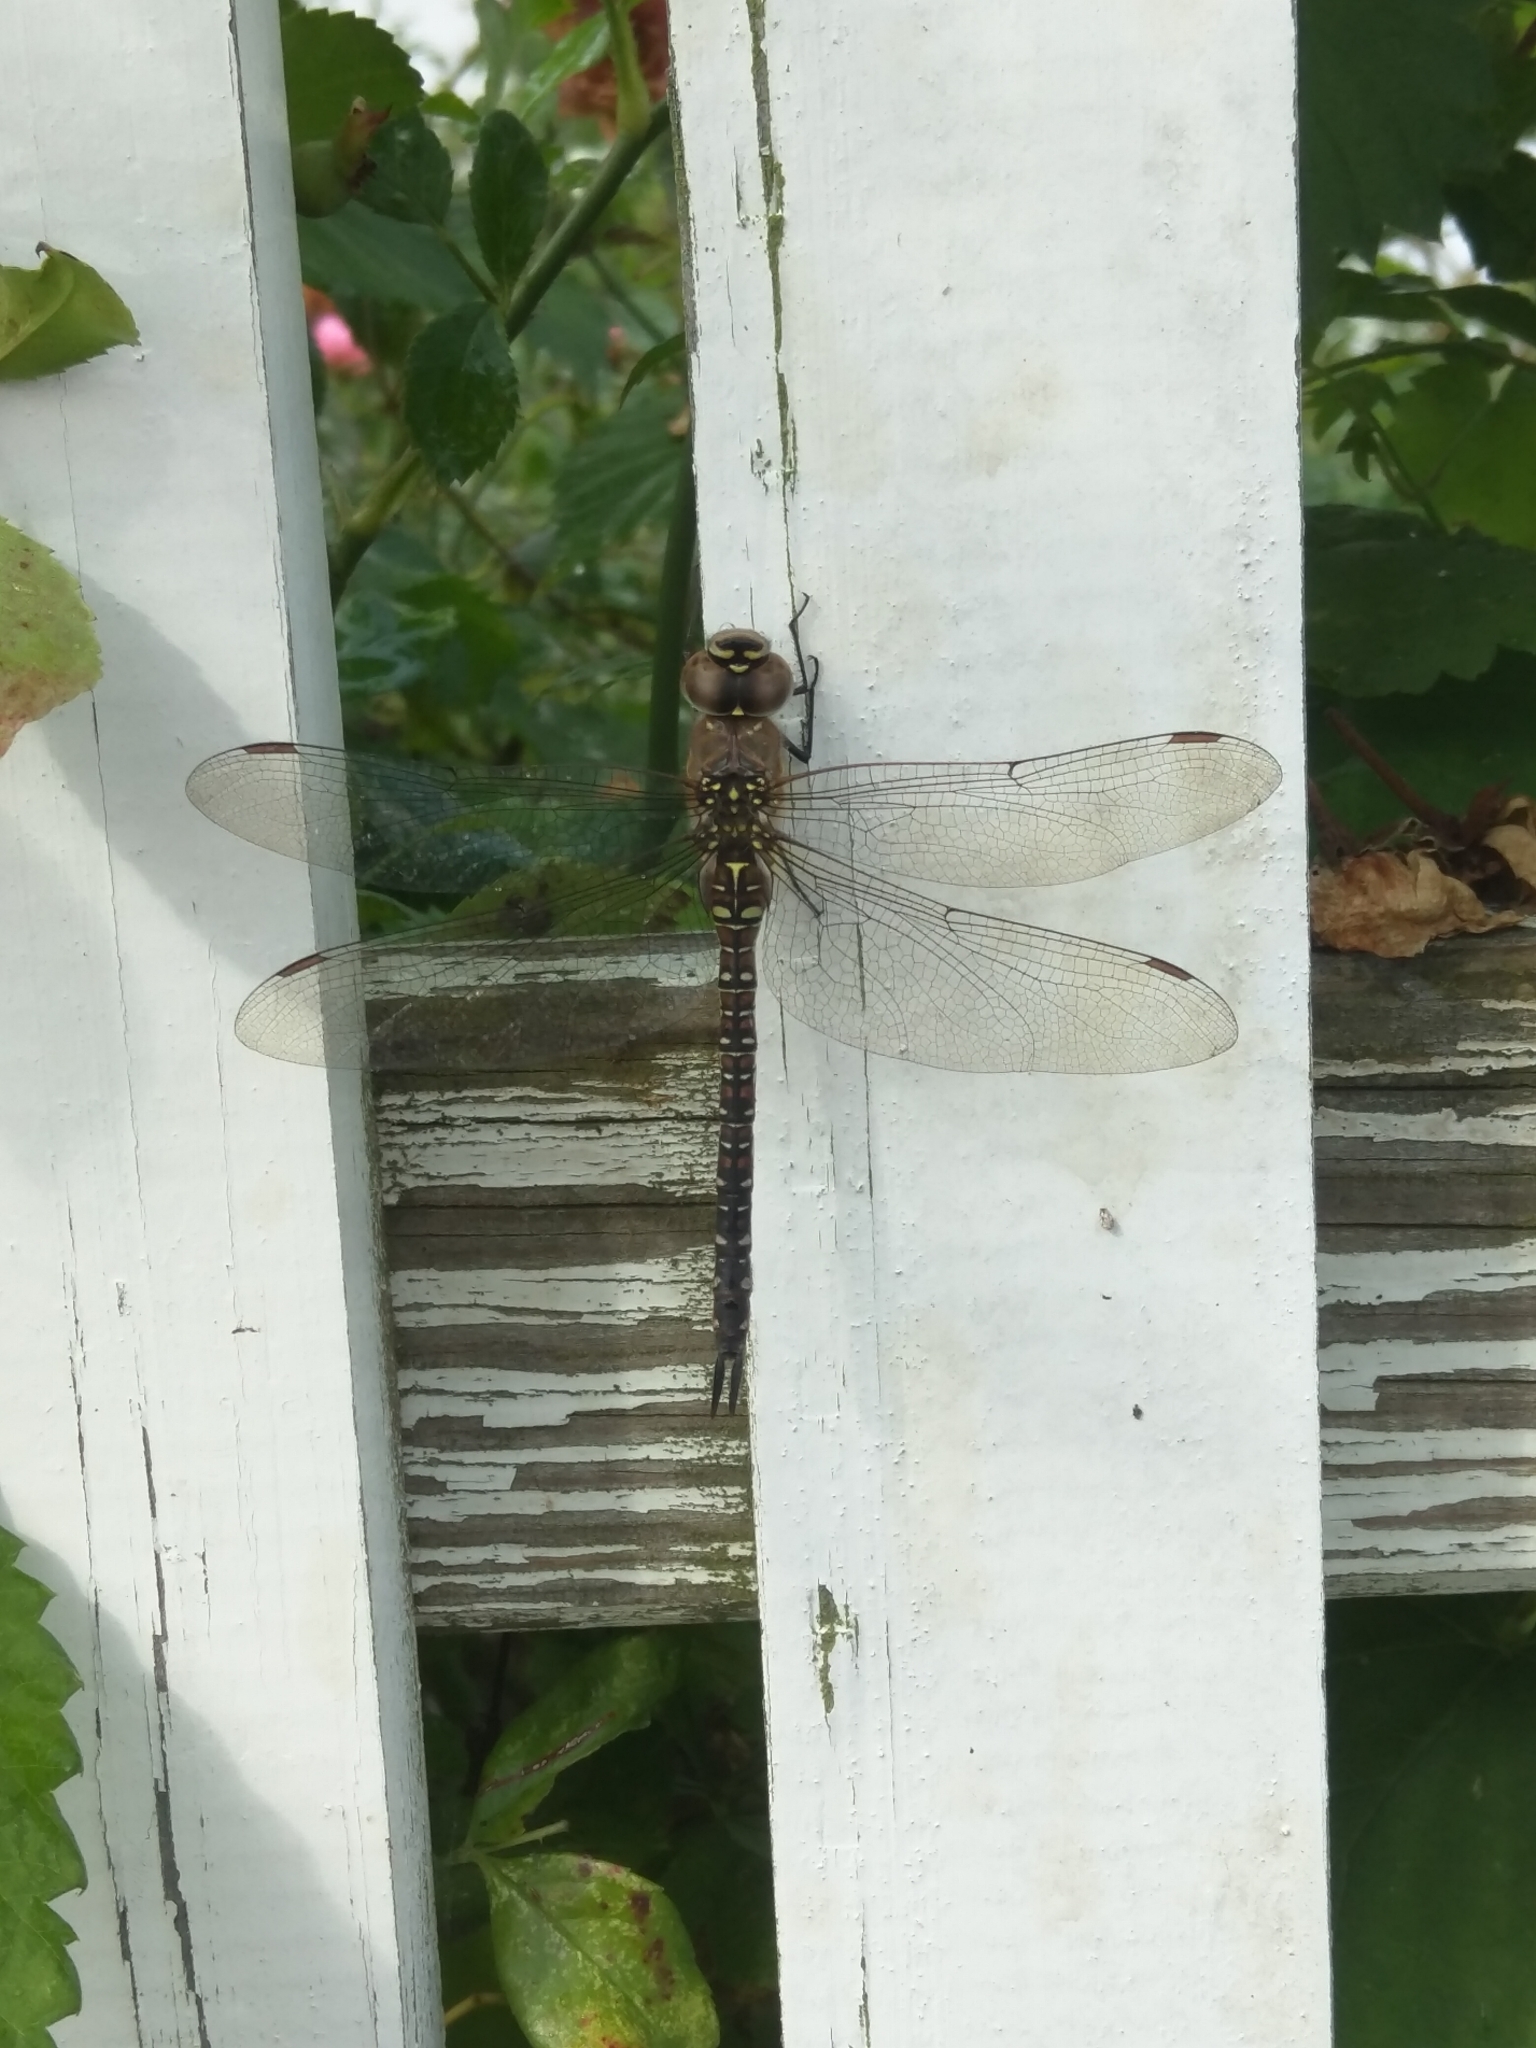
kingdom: Animalia
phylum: Arthropoda
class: Insecta
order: Odonata
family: Aeshnidae
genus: Aeshna
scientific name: Aeshna mixta
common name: Migrant hawker
